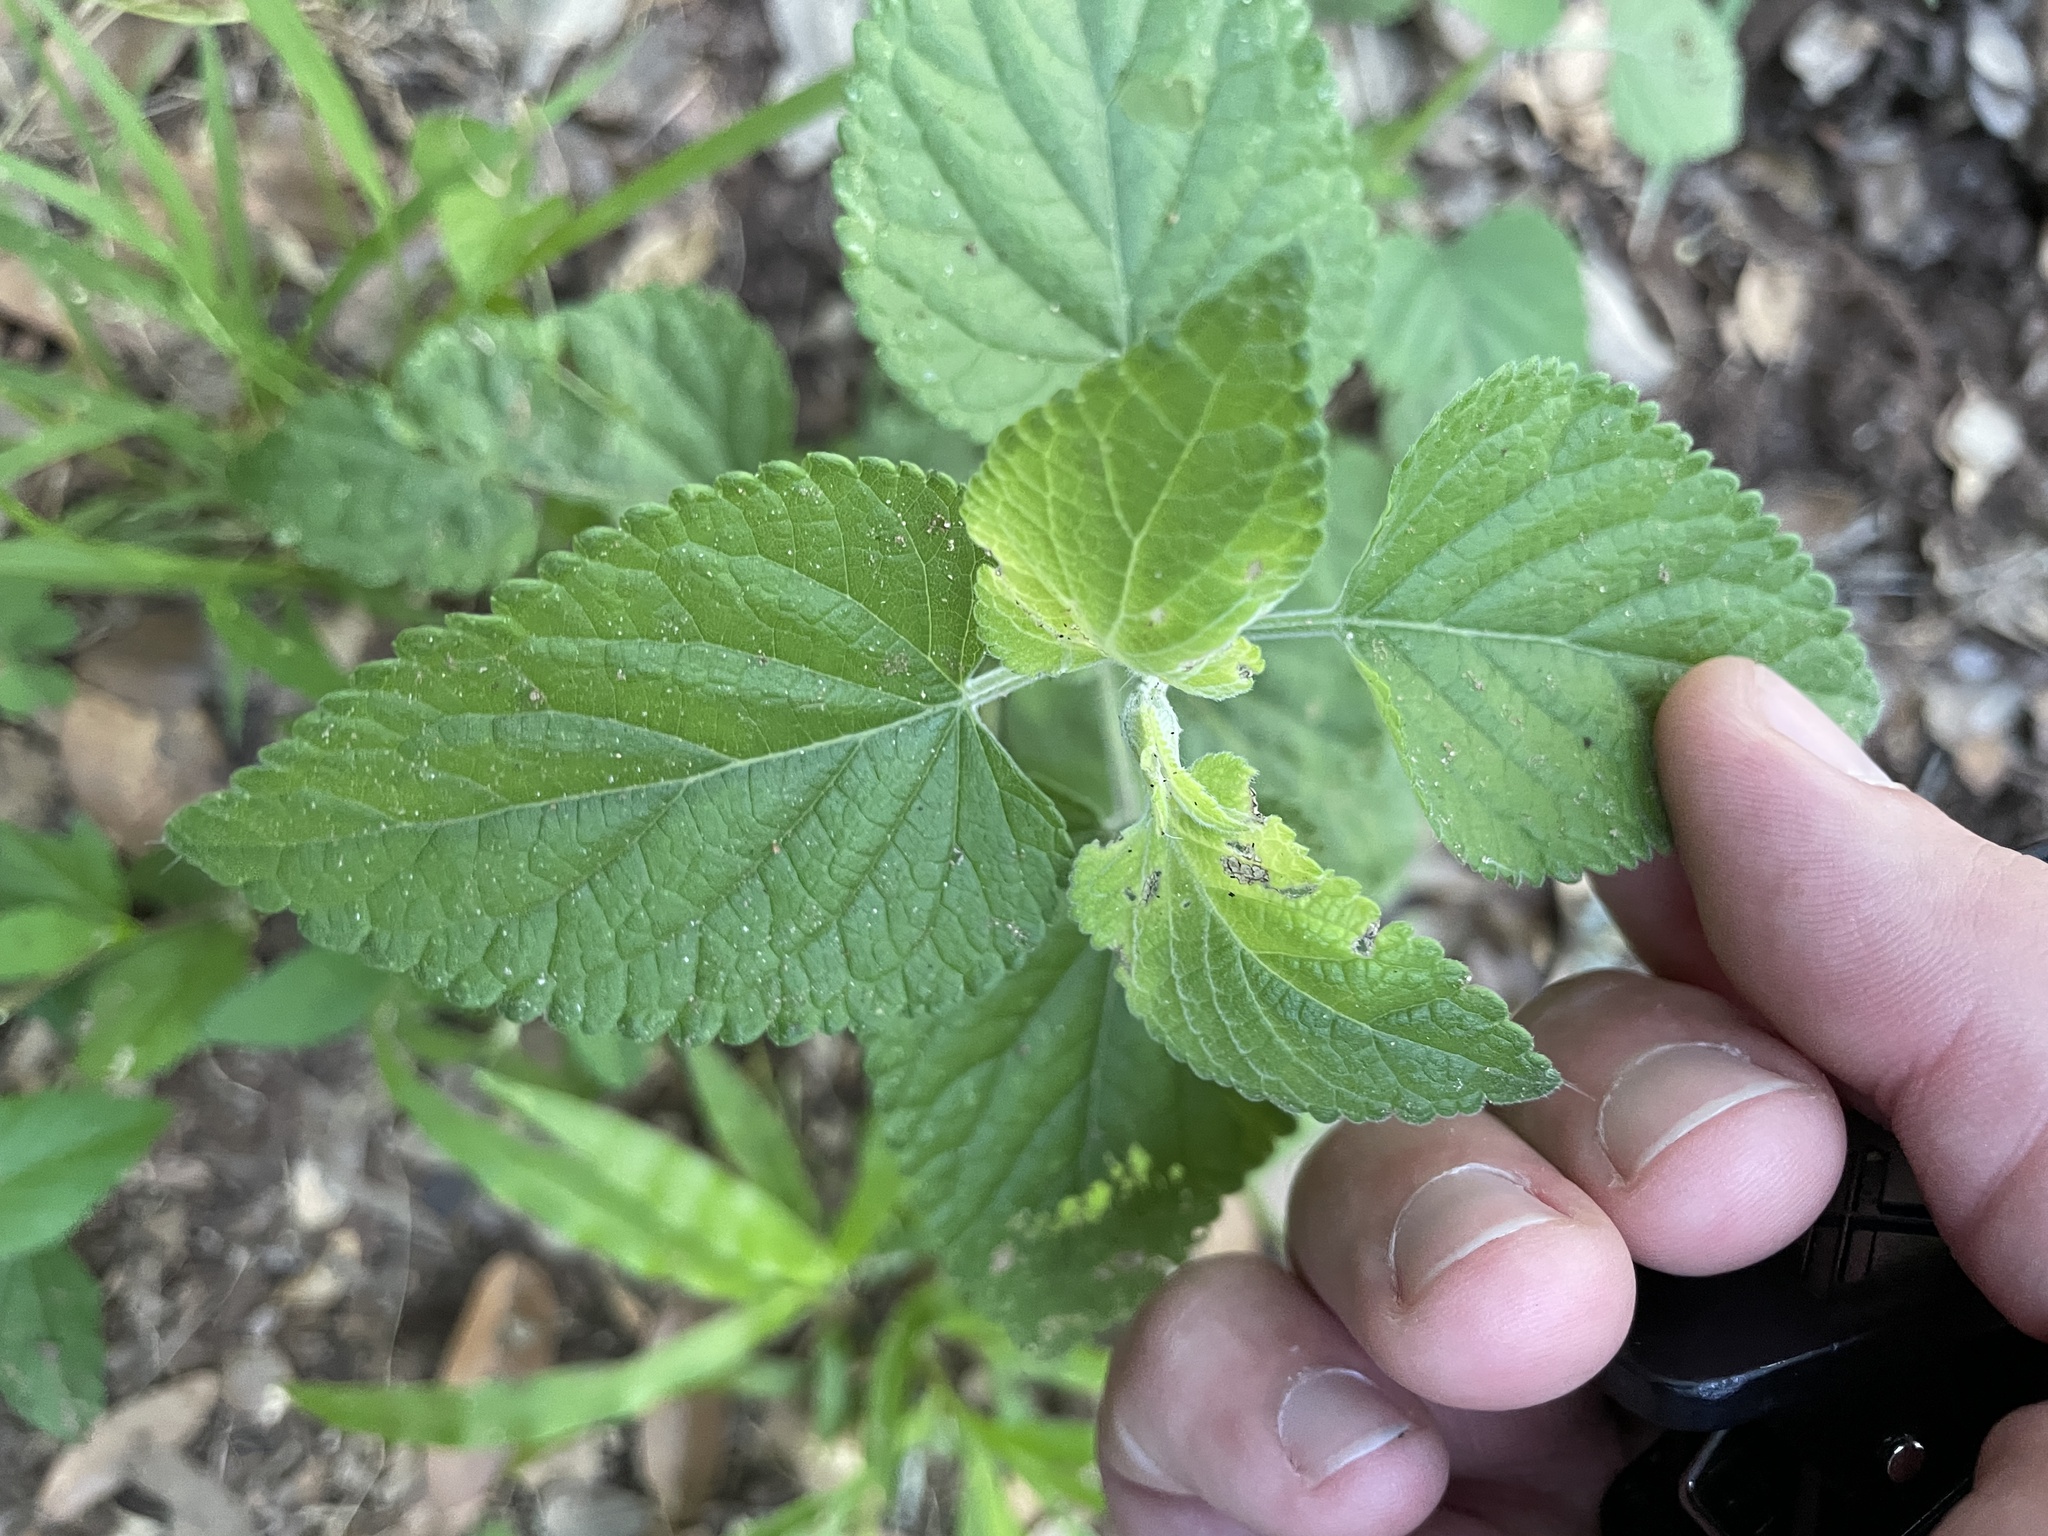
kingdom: Plantae
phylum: Tracheophyta
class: Magnoliopsida
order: Lamiales
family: Lamiaceae
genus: Salvia
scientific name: Salvia coccinea
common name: Blood sage
